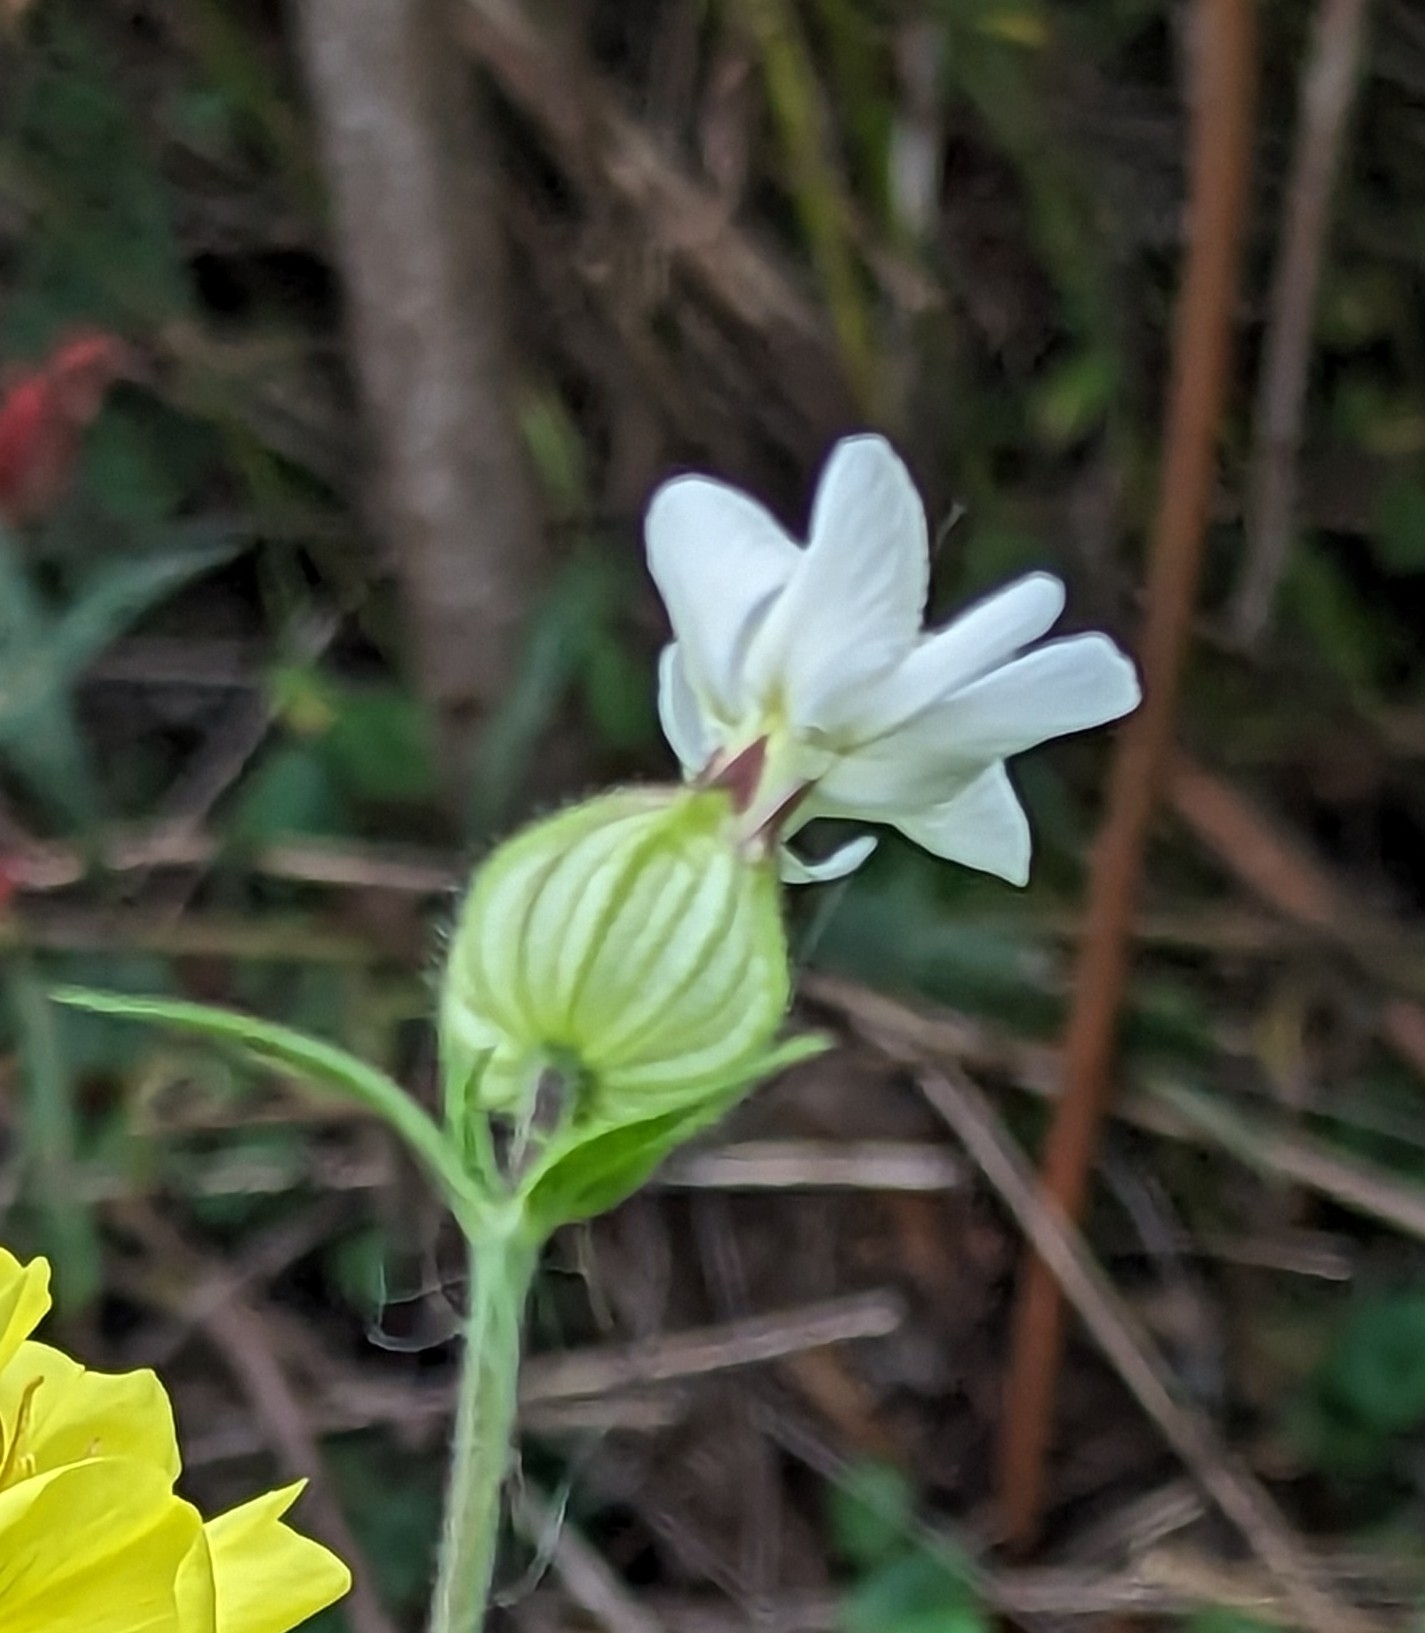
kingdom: Plantae
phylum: Tracheophyta
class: Magnoliopsida
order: Caryophyllales
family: Caryophyllaceae
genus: Silene
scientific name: Silene latifolia
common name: White campion
